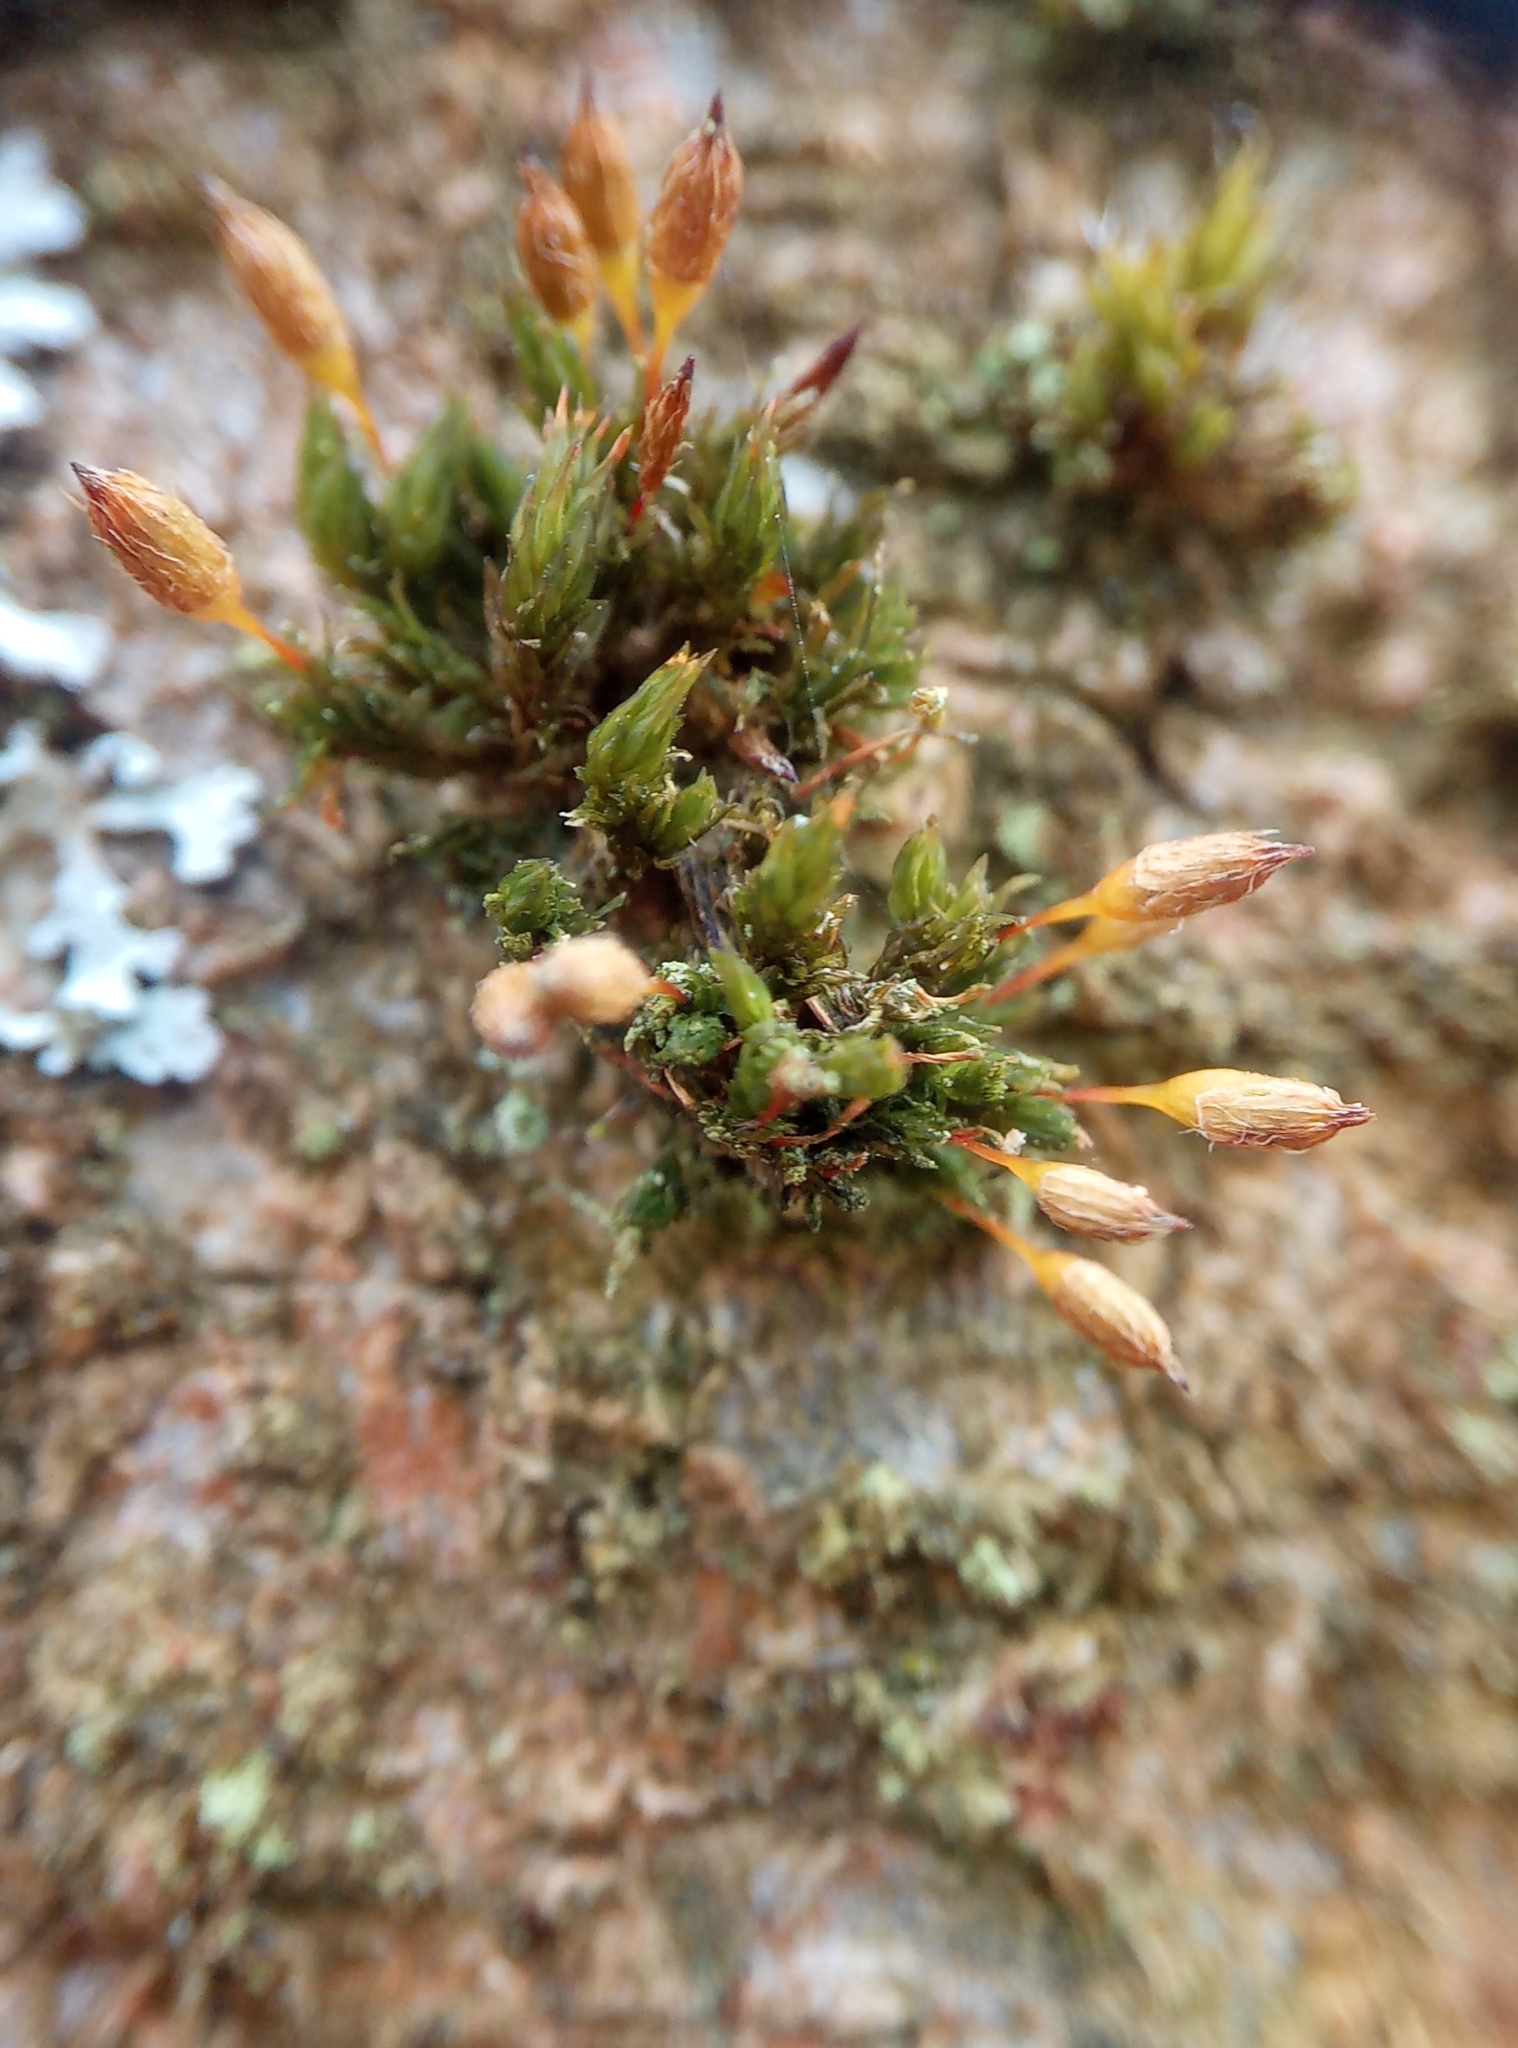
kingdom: Plantae
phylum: Bryophyta
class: Bryopsida
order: Orthotrichales
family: Orthotrichaceae
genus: Orthotrichum
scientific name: Orthotrichum anomalum
